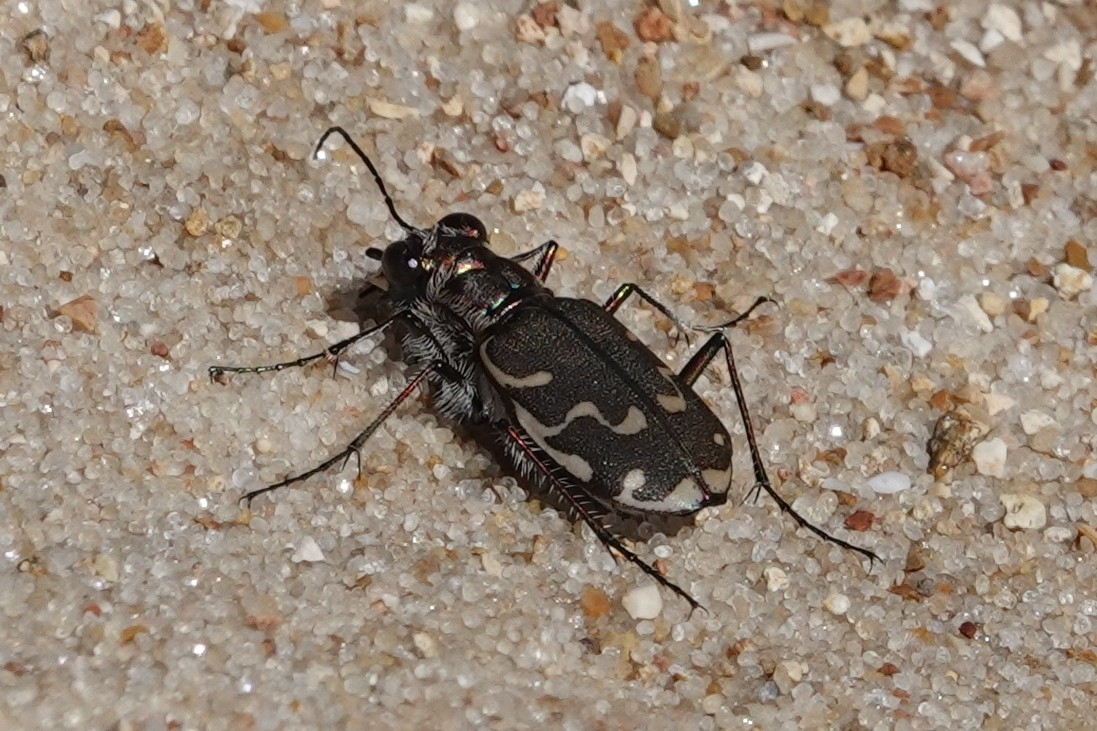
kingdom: Animalia
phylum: Arthropoda
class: Insecta
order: Coleoptera
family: Carabidae
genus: Cicindela
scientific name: Cicindela repanda
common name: Bronzed tiger beetle
